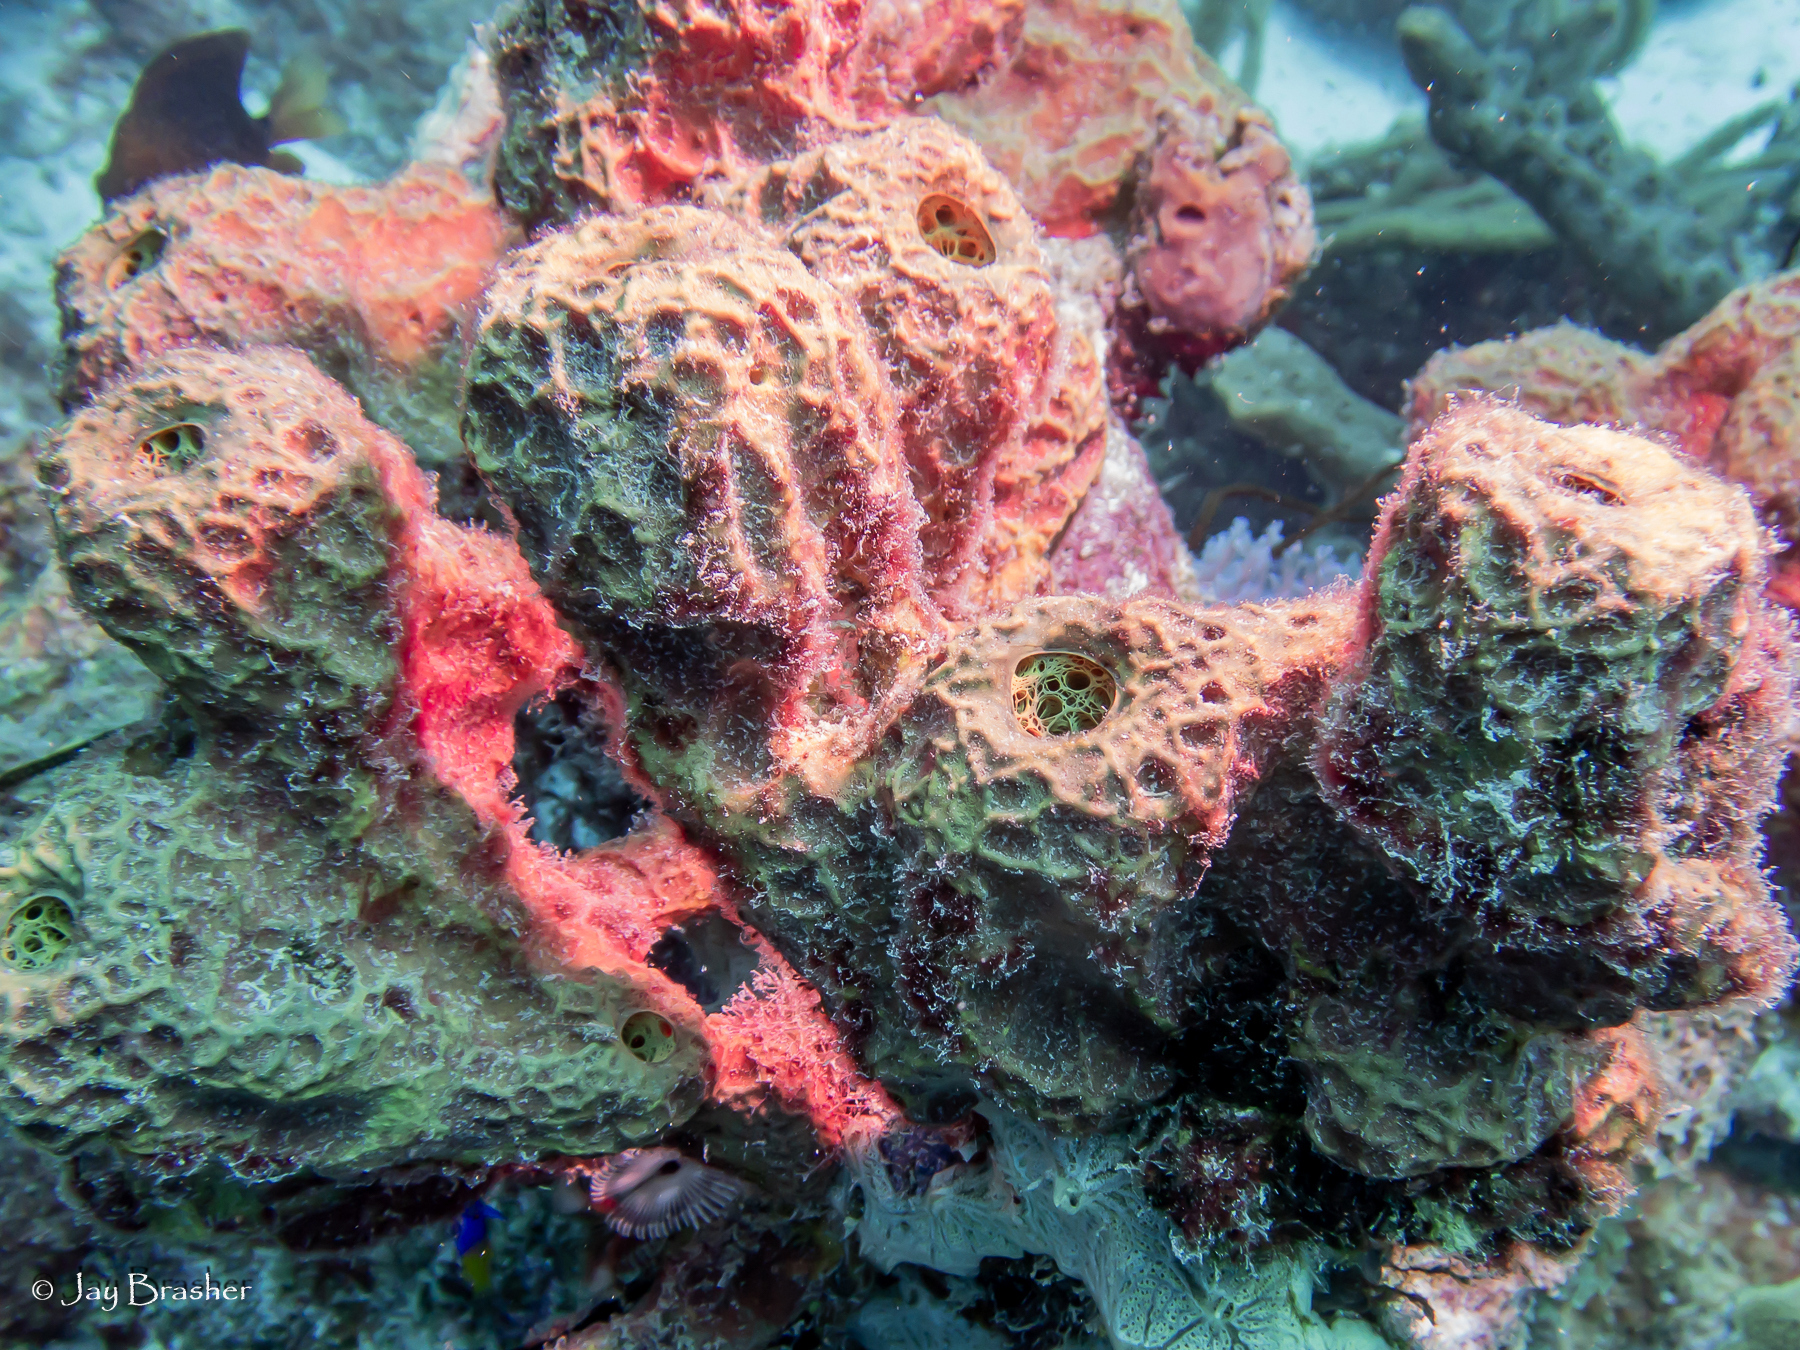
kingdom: Animalia
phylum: Porifera
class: Demospongiae
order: Verongiida
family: Aplysinidae
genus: Verongula
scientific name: Verongula rigida
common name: Pitted sponge
